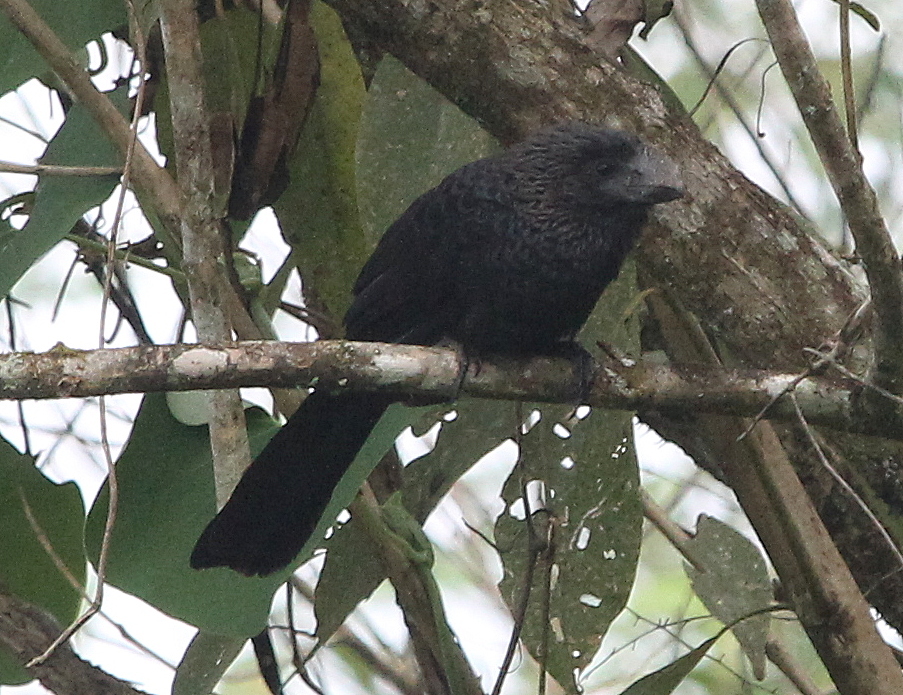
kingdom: Animalia
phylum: Chordata
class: Aves
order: Cuculiformes
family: Cuculidae
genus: Crotophaga
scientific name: Crotophaga ani
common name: Smooth-billed ani
